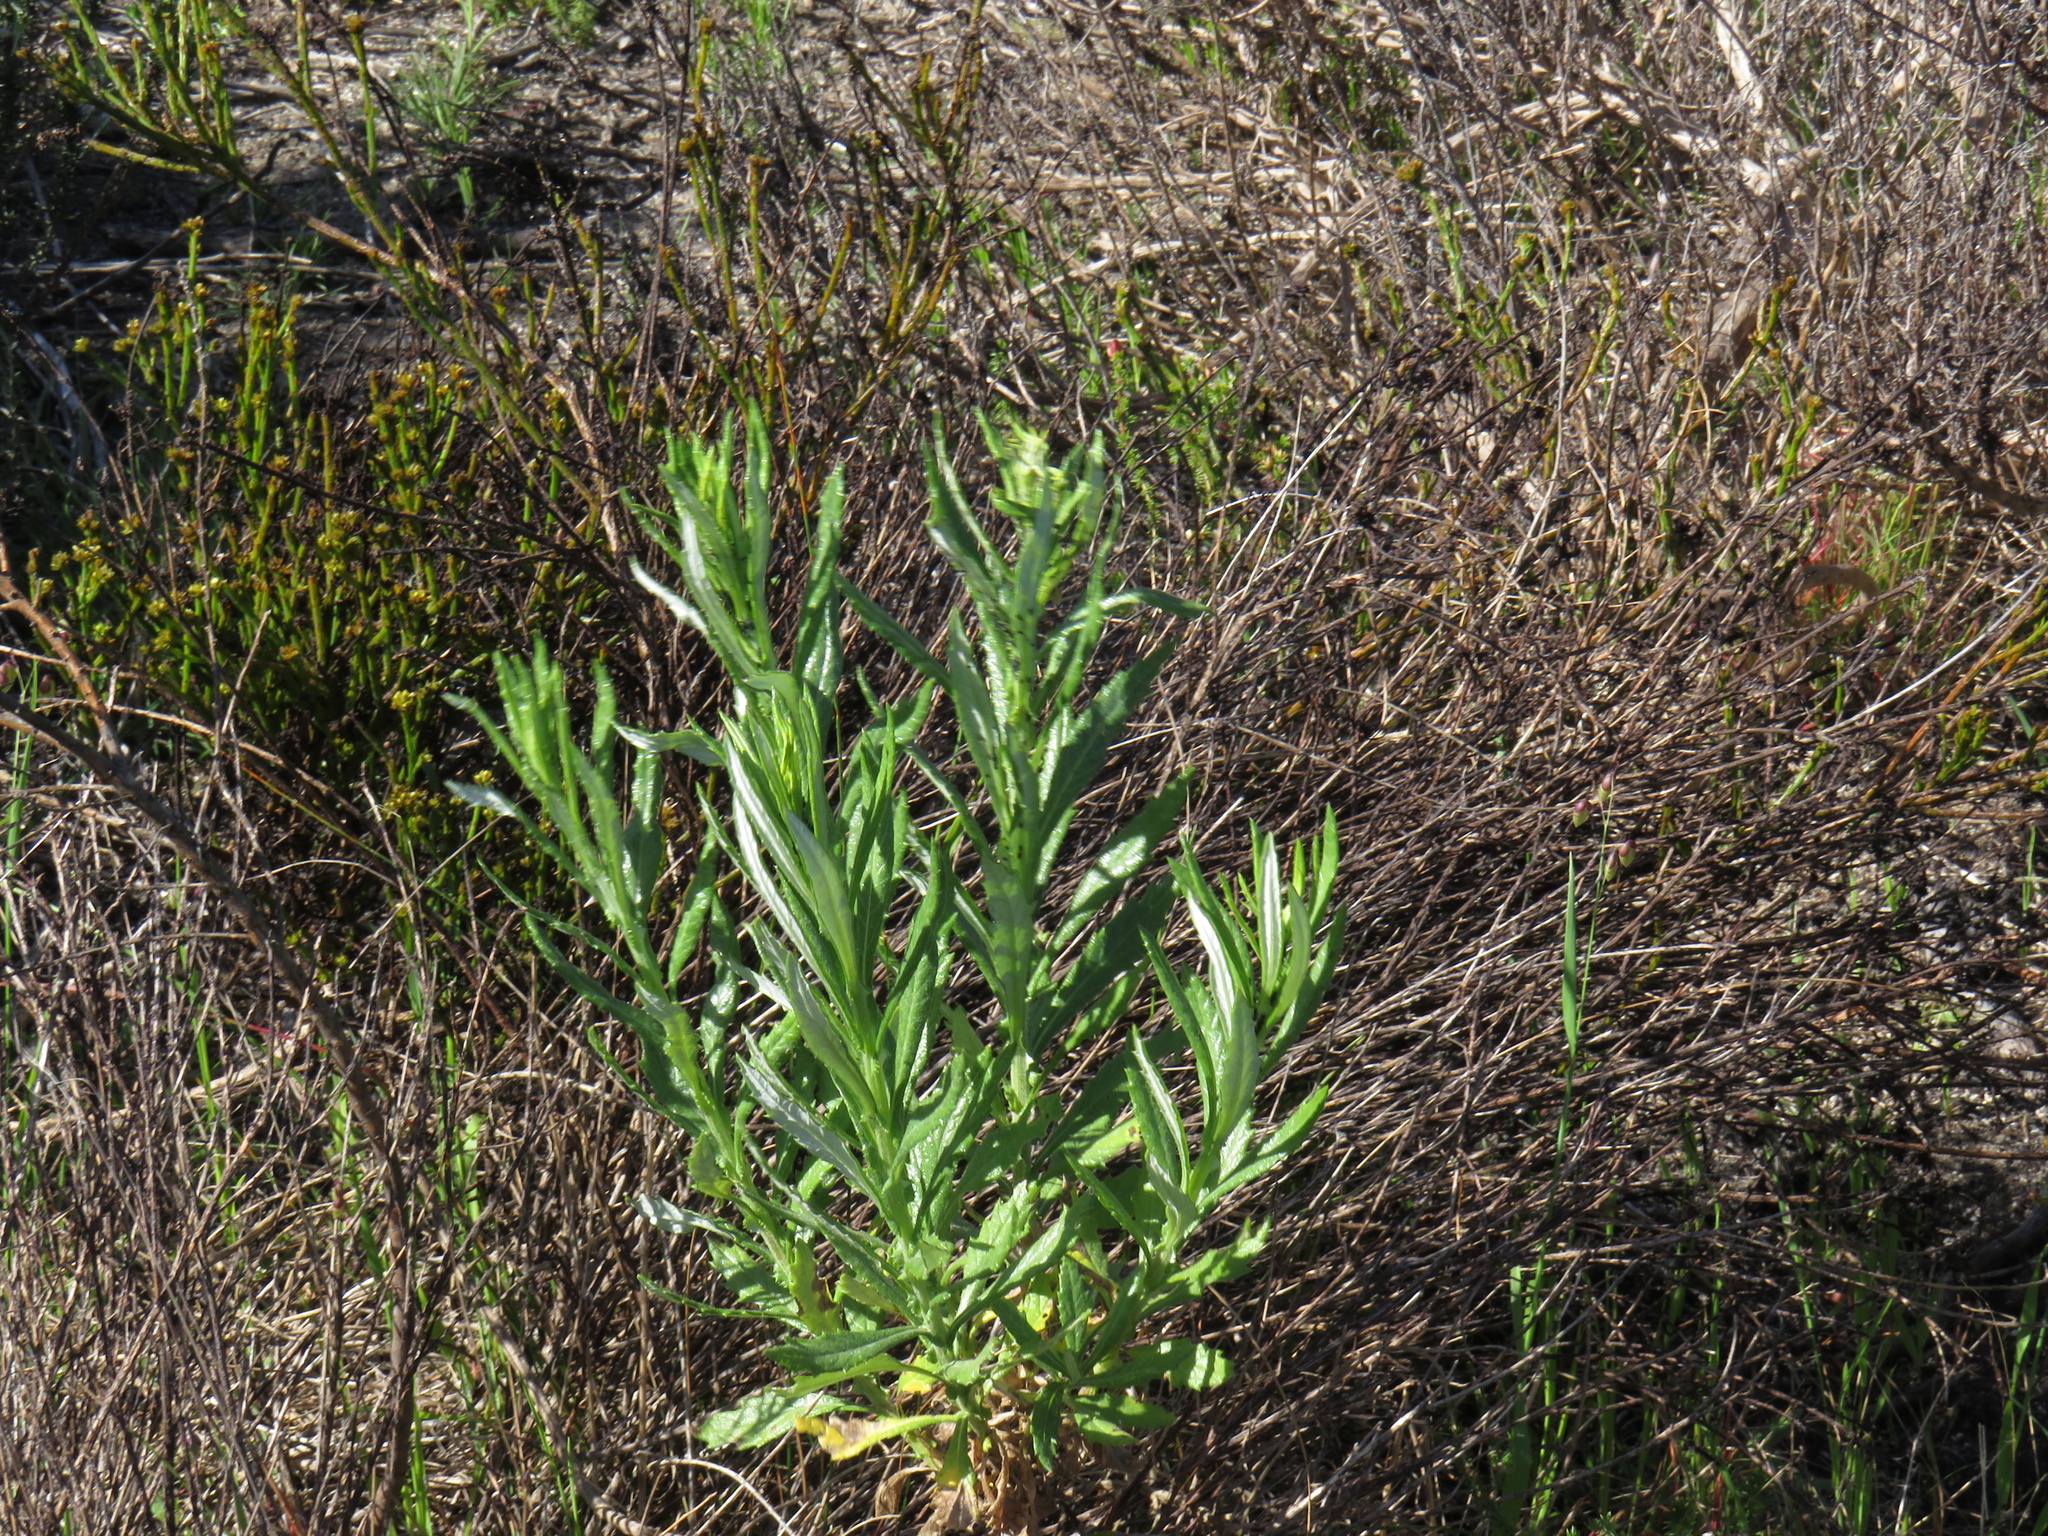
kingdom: Plantae
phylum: Tracheophyta
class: Magnoliopsida
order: Asterales
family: Asteraceae
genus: Senecio
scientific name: Senecio pterophorus
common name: Shoddy ragwort
